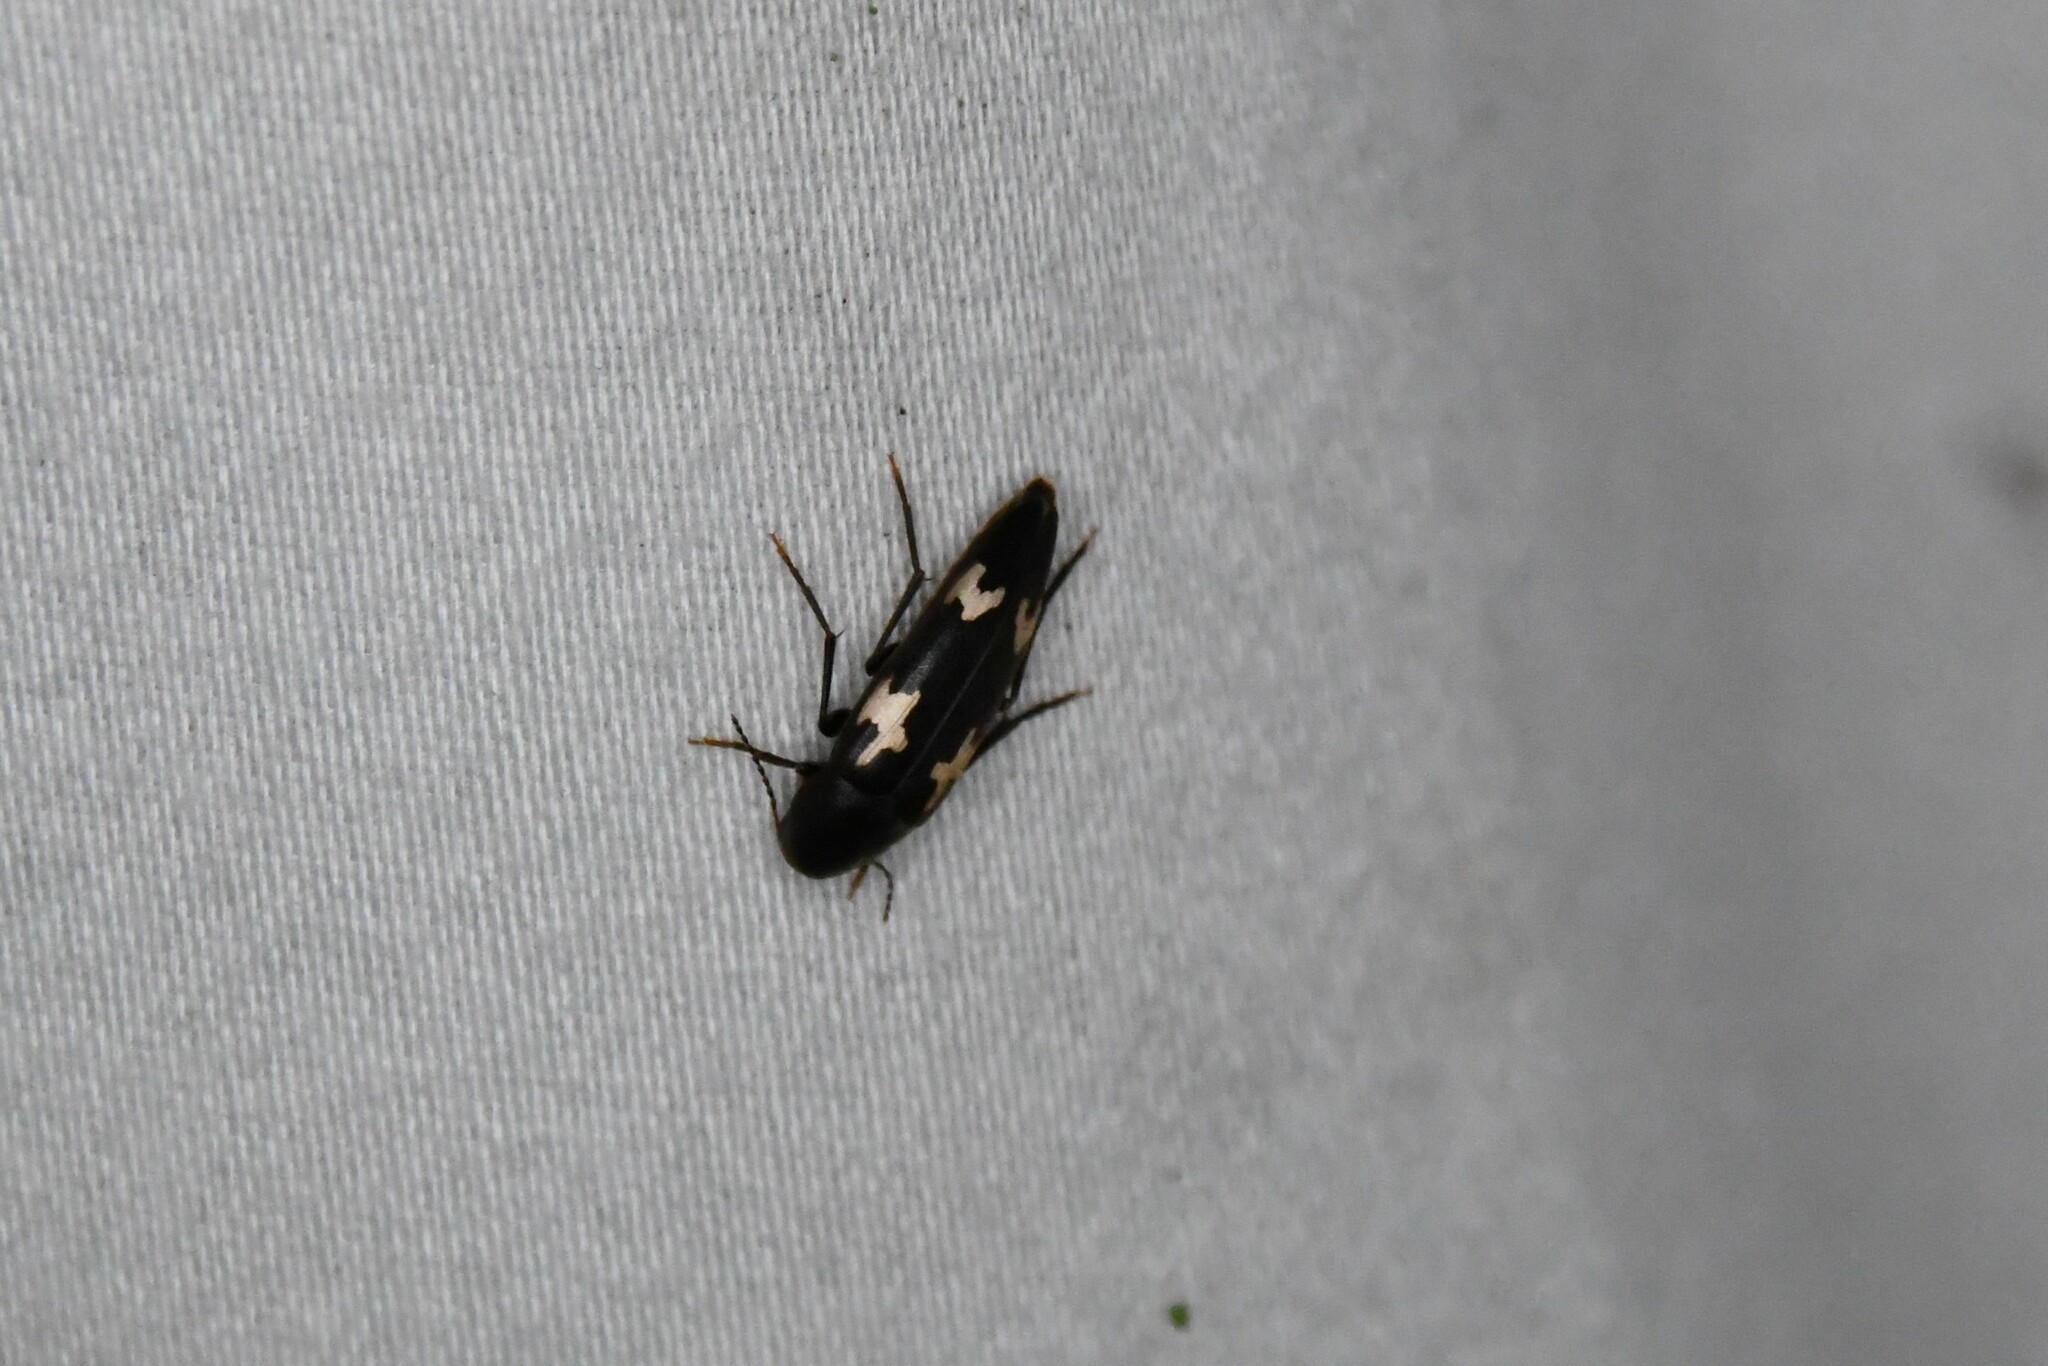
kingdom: Animalia
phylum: Arthropoda
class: Insecta
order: Coleoptera
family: Melandryidae
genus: Dircaea
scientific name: Dircaea liturata
